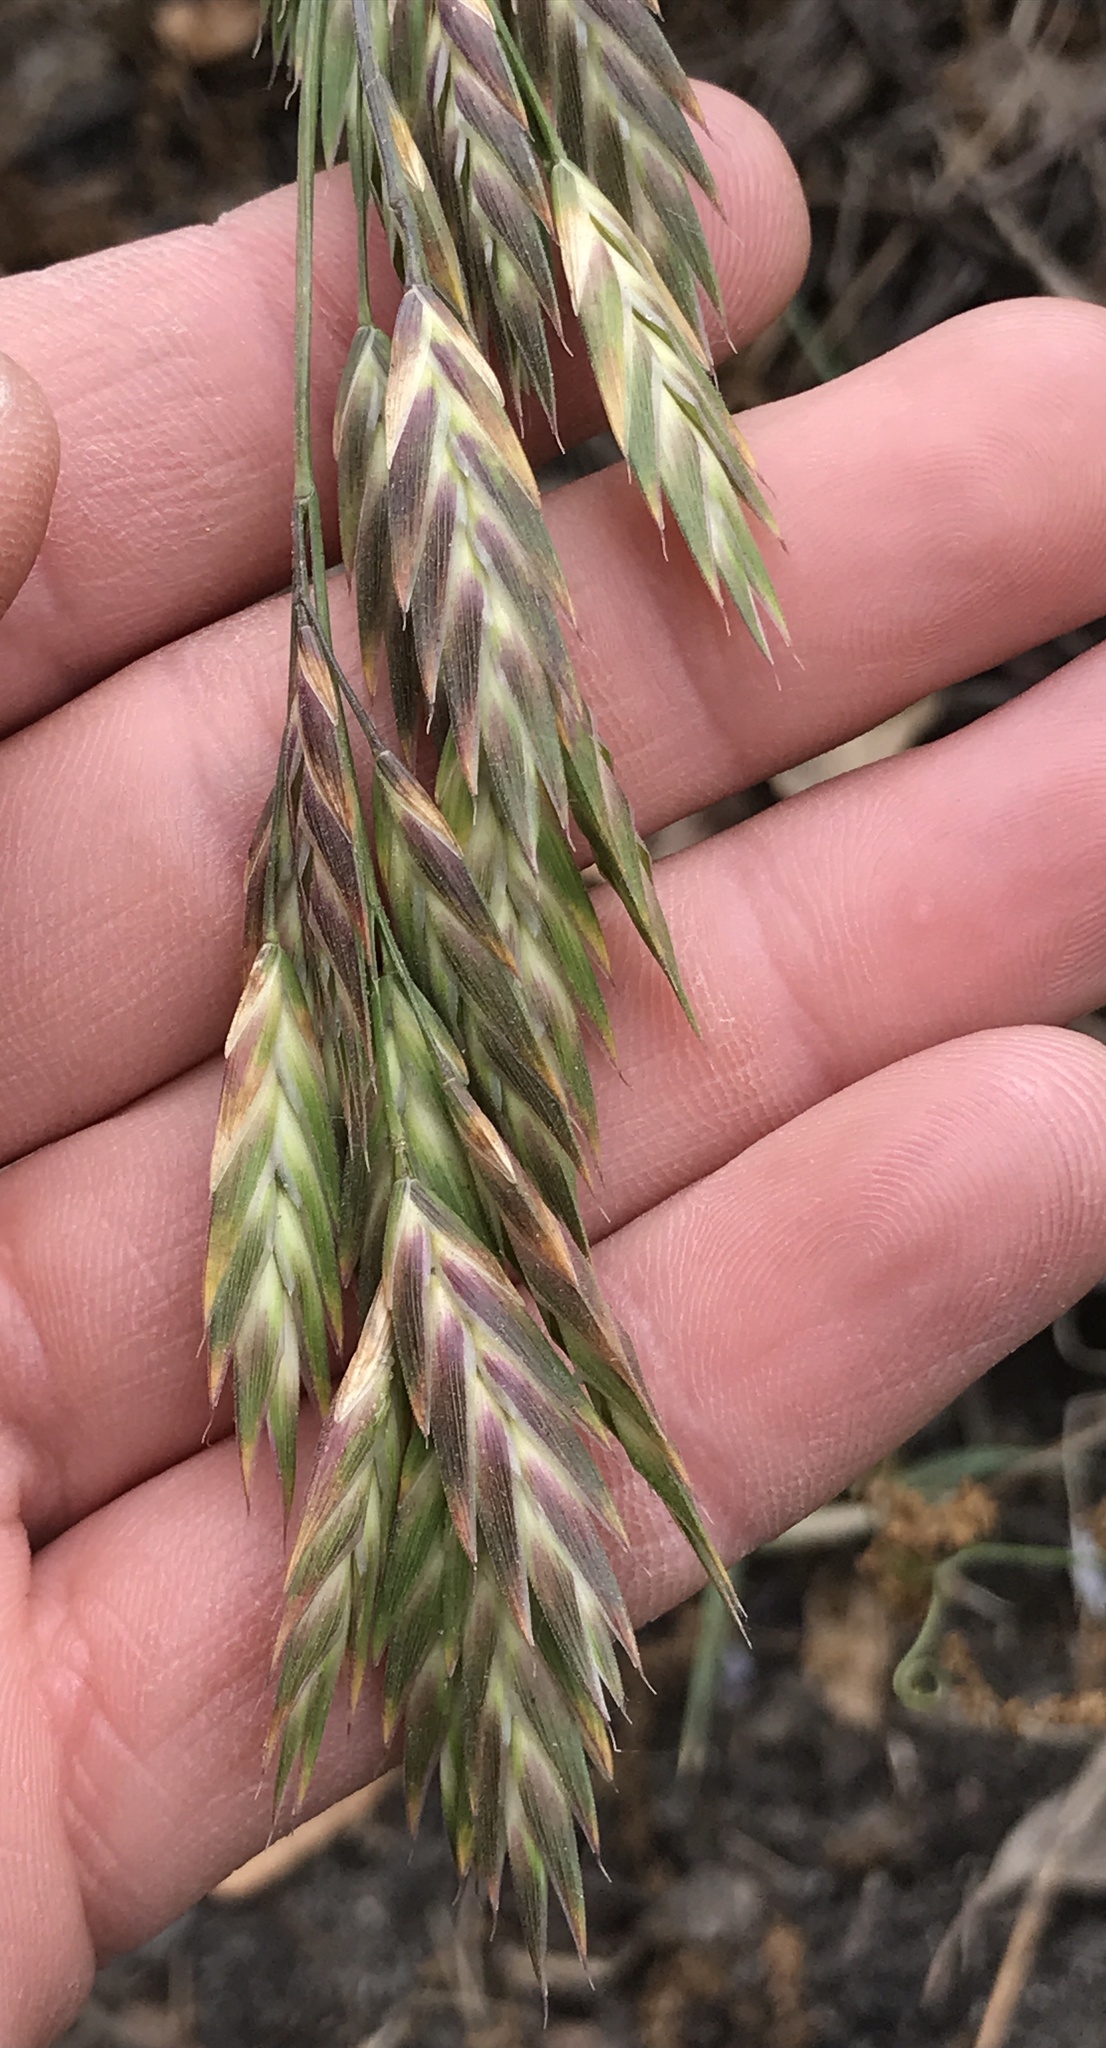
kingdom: Plantae
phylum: Tracheophyta
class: Liliopsida
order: Poales
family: Poaceae
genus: Bromus
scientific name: Bromus catharticus
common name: Rescuegrass
